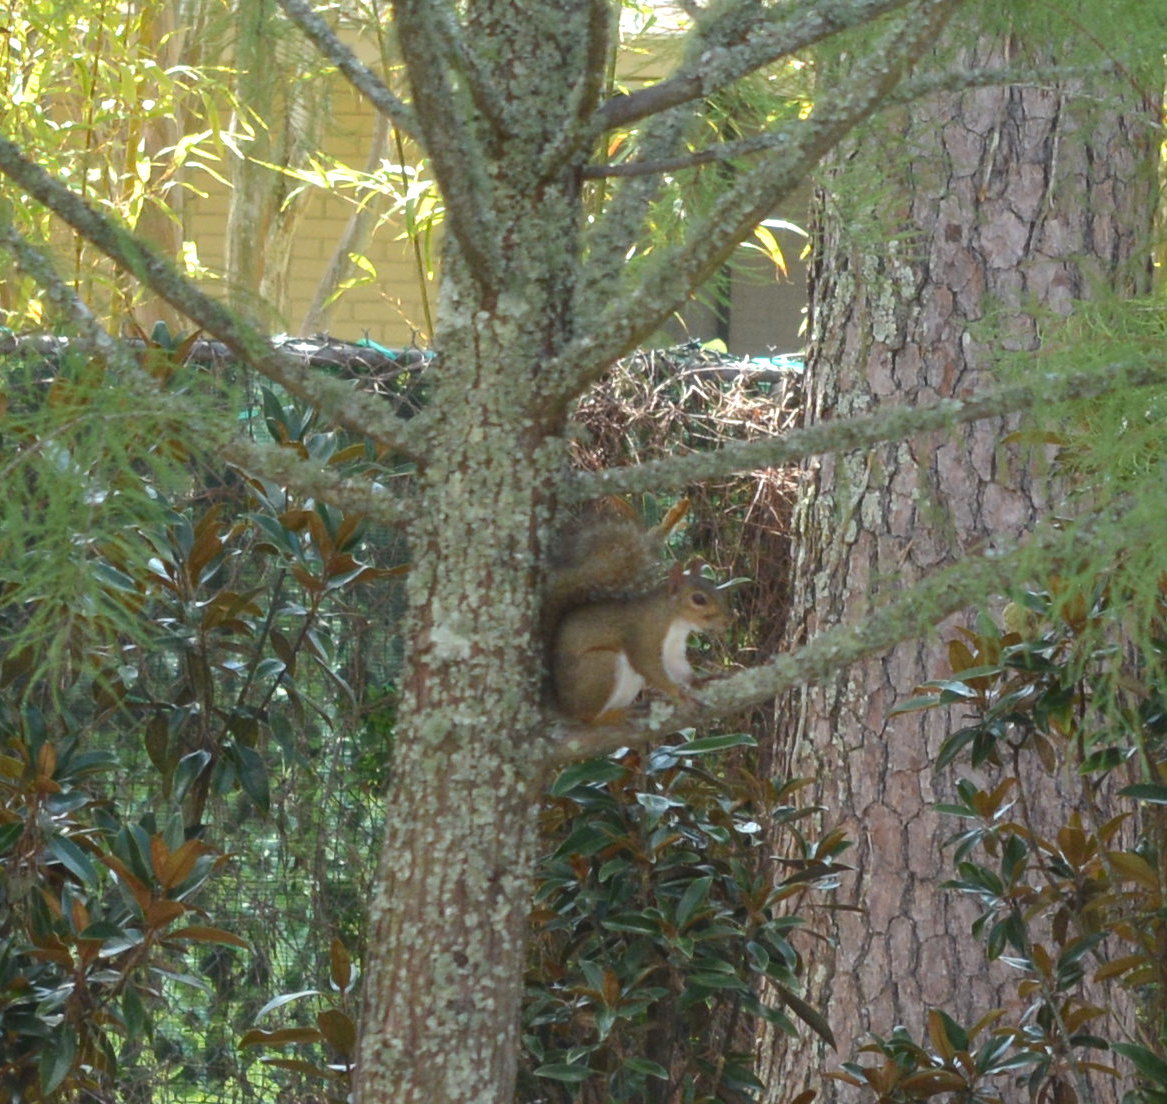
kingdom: Animalia
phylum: Chordata
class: Mammalia
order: Rodentia
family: Sciuridae
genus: Sciurus
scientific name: Sciurus carolinensis
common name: Eastern gray squirrel
